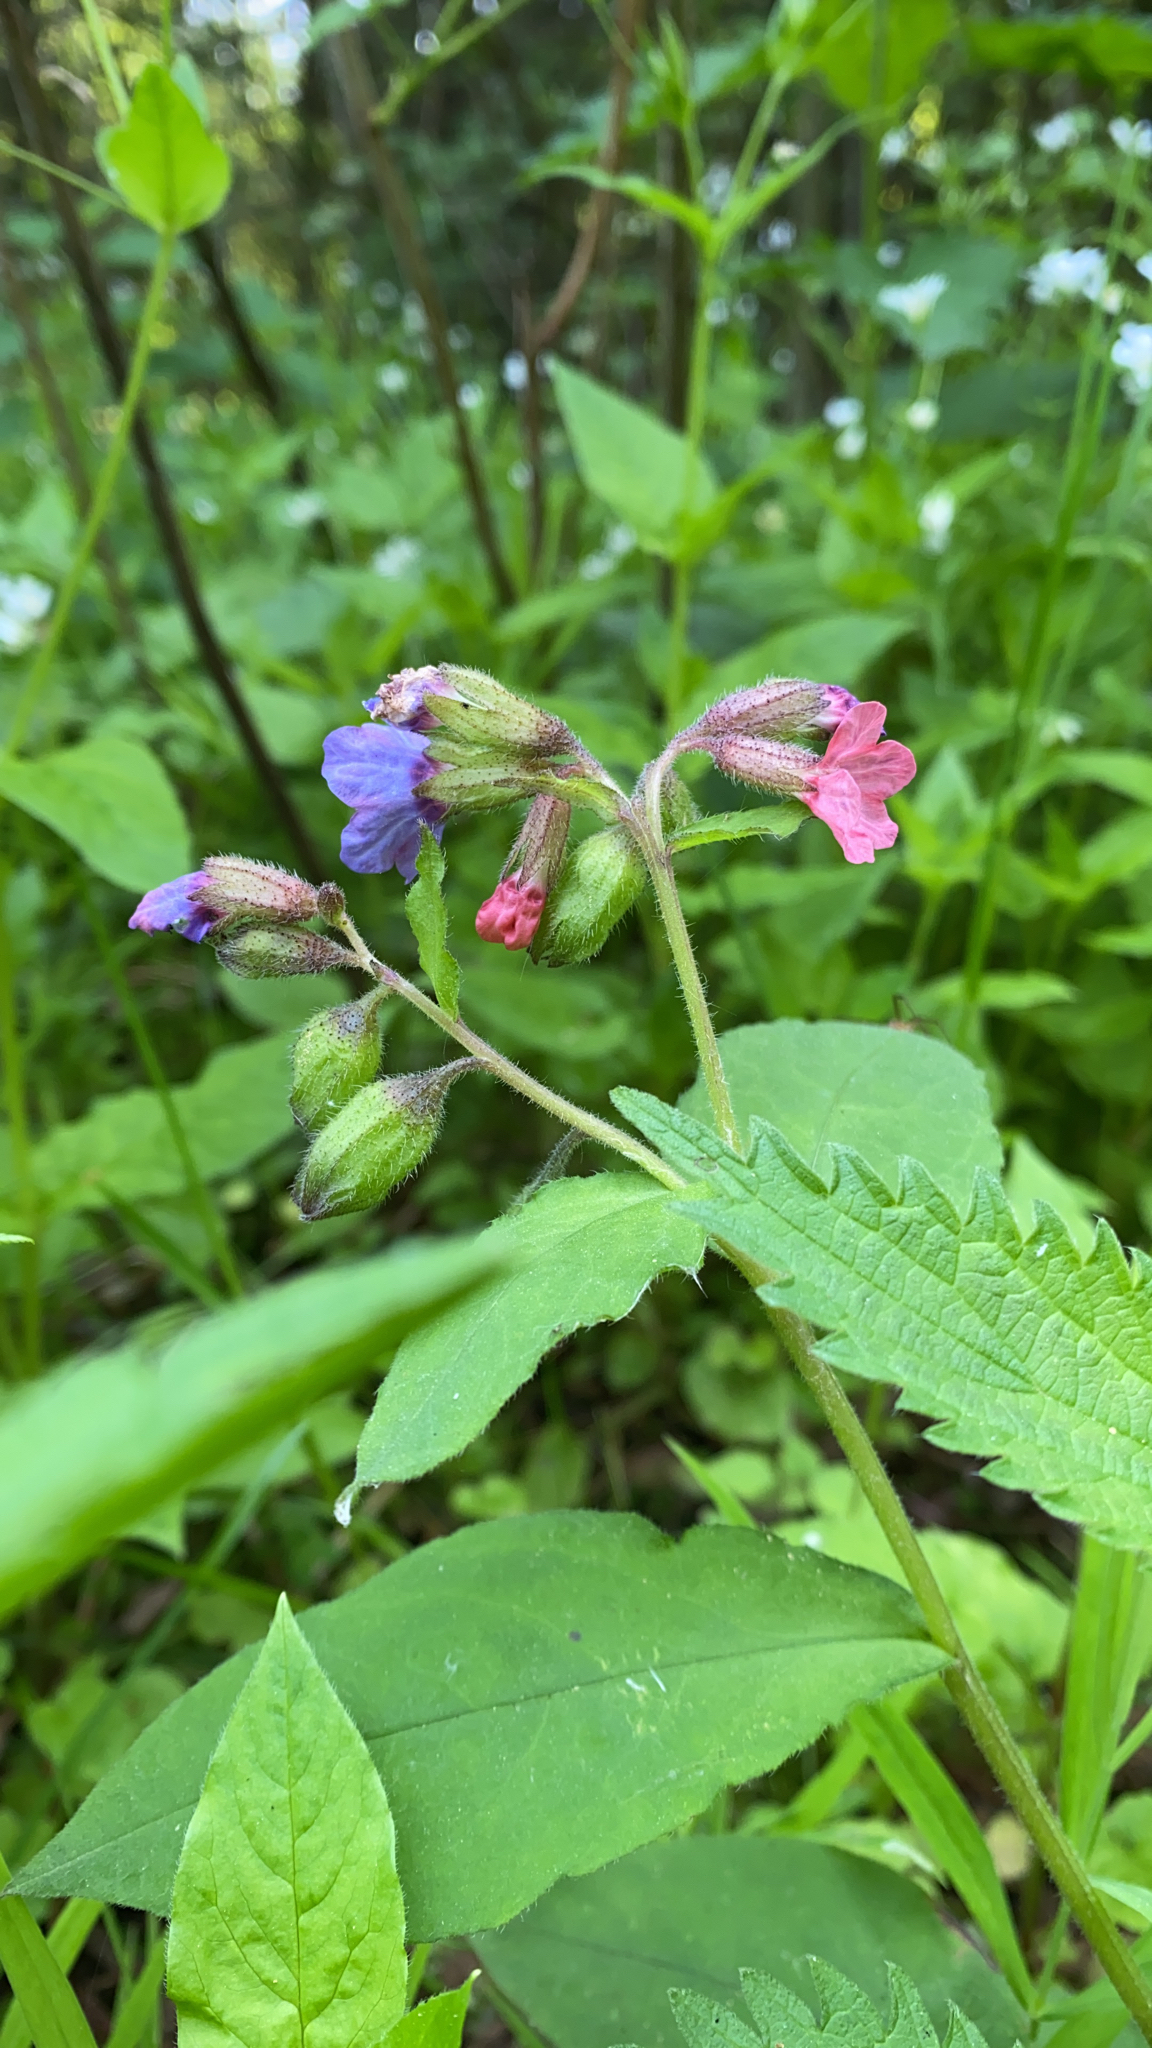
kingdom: Plantae
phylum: Tracheophyta
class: Magnoliopsida
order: Boraginales
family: Boraginaceae
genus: Pulmonaria
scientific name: Pulmonaria obscura
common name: Suffolk lungwort
